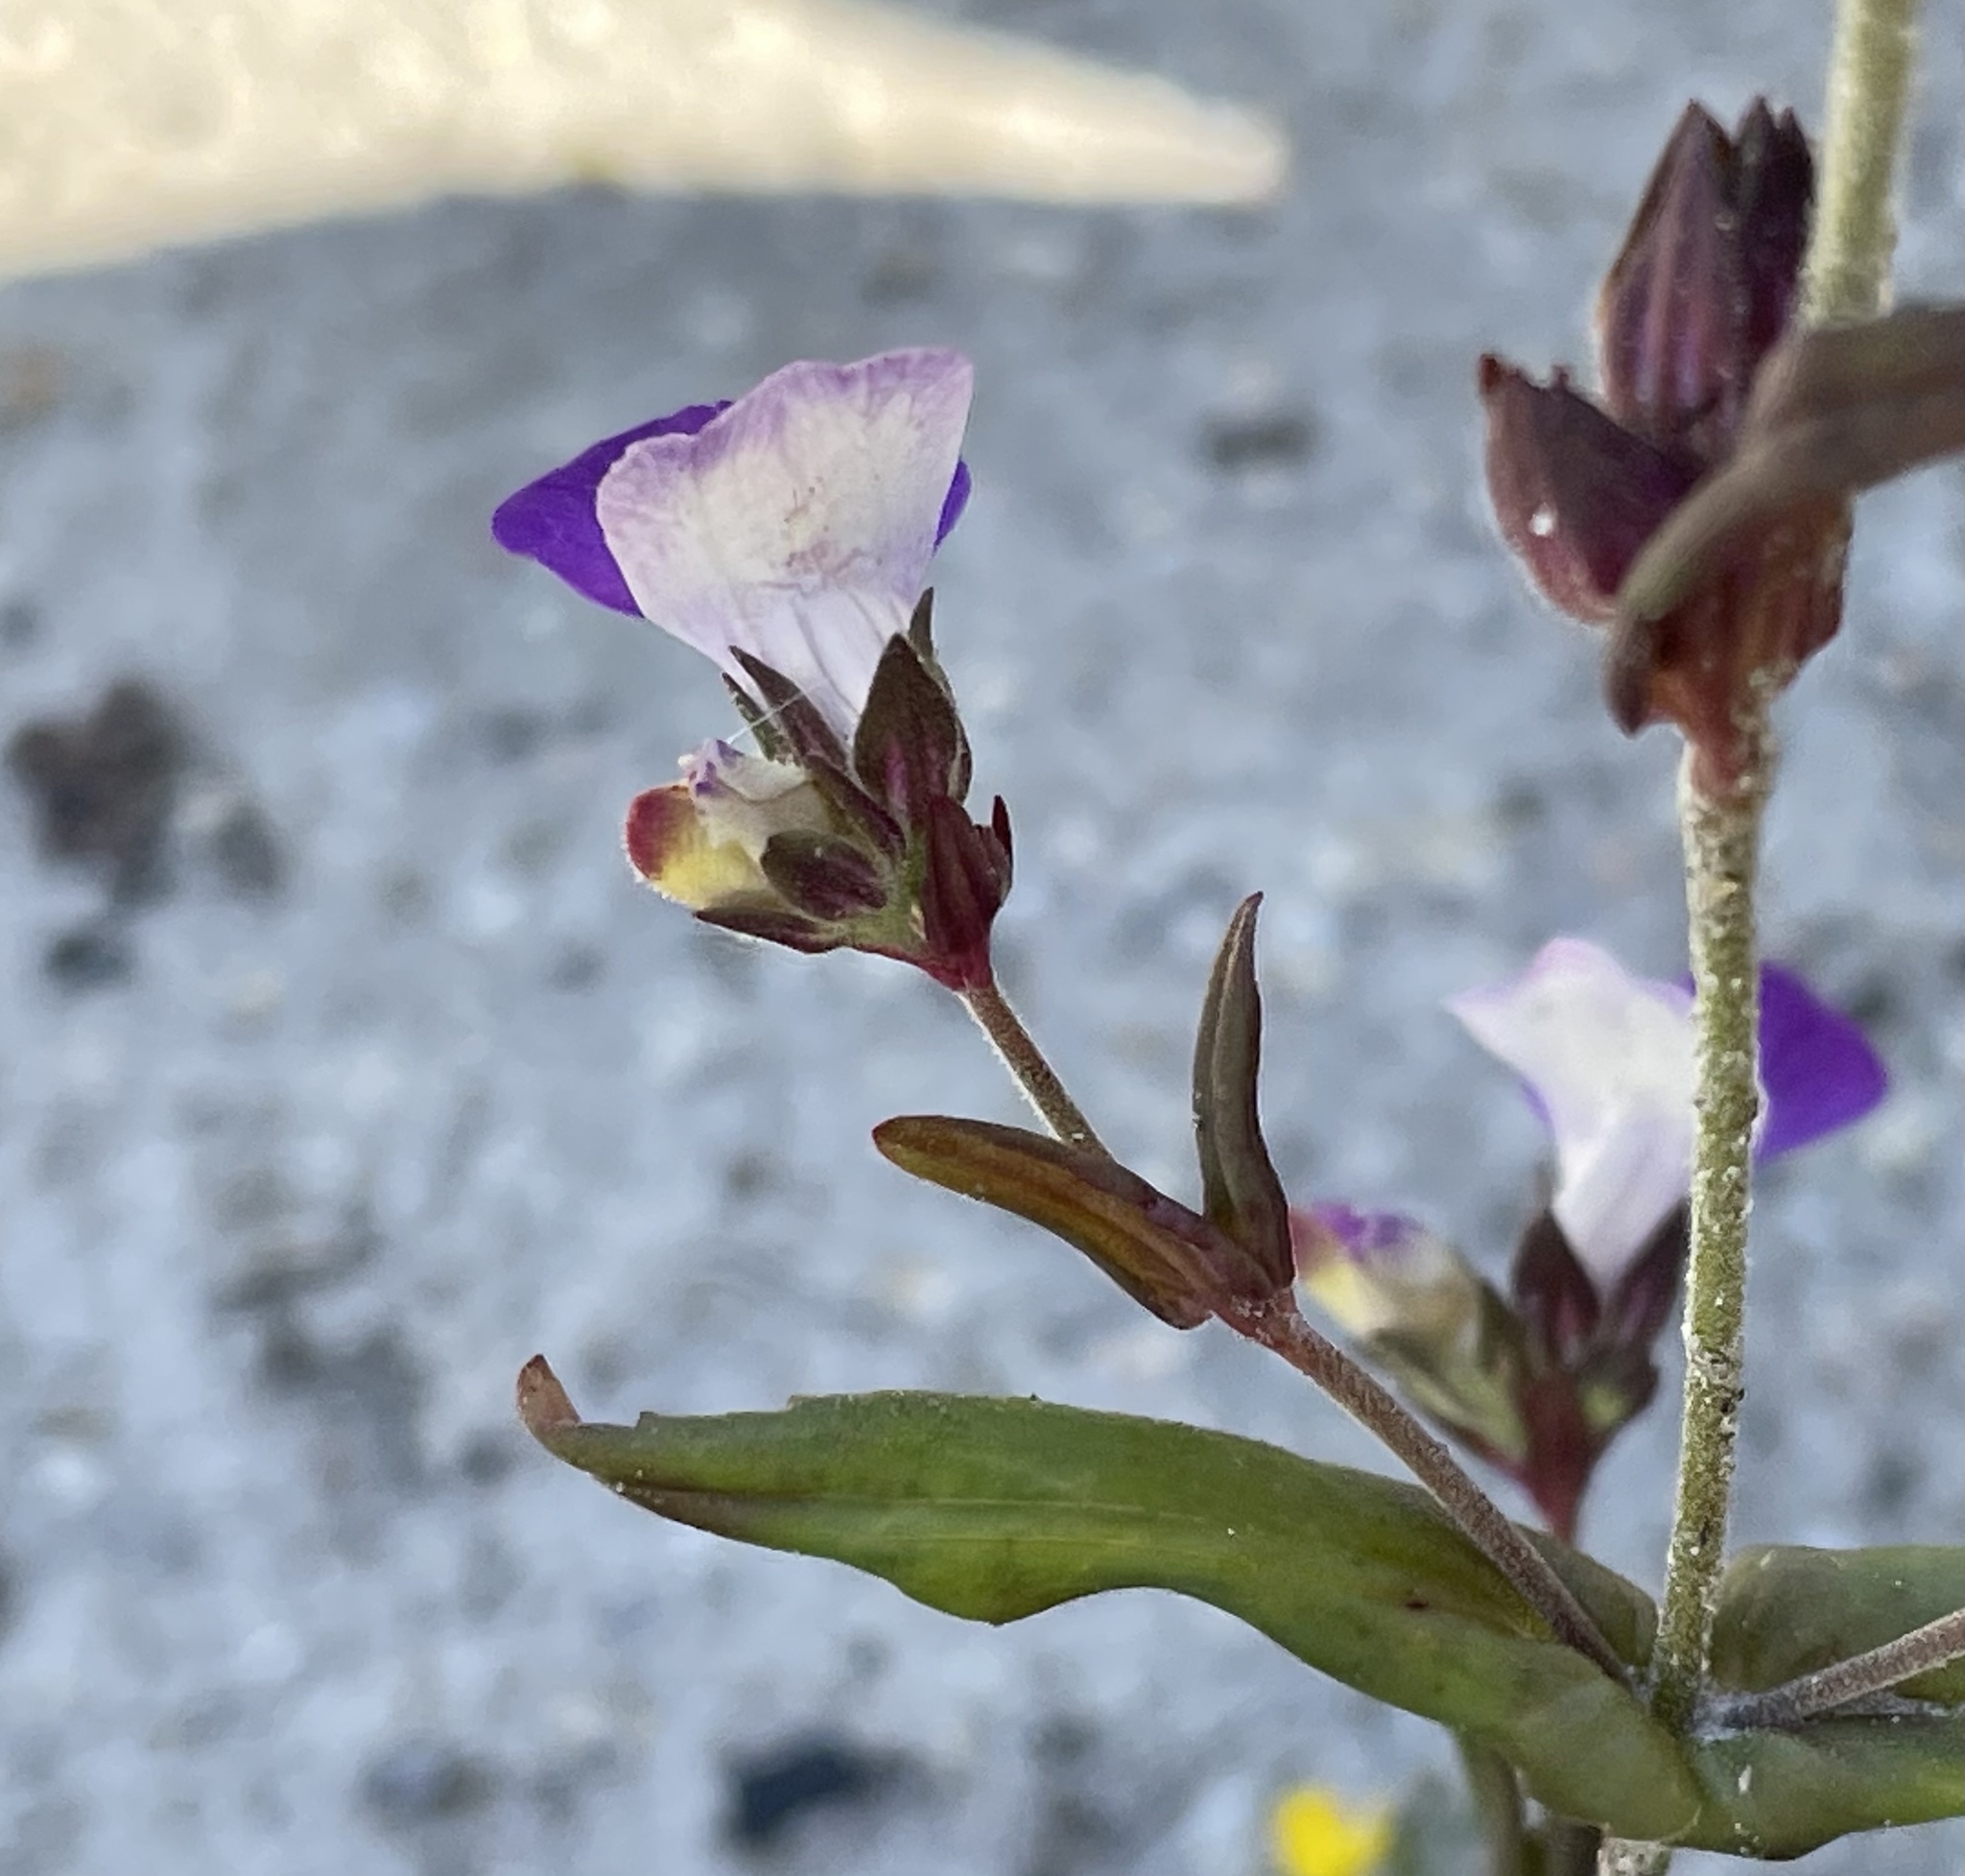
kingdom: Plantae
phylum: Tracheophyta
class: Magnoliopsida
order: Lamiales
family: Plantaginaceae
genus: Collinsia
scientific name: Collinsia sparsiflora
